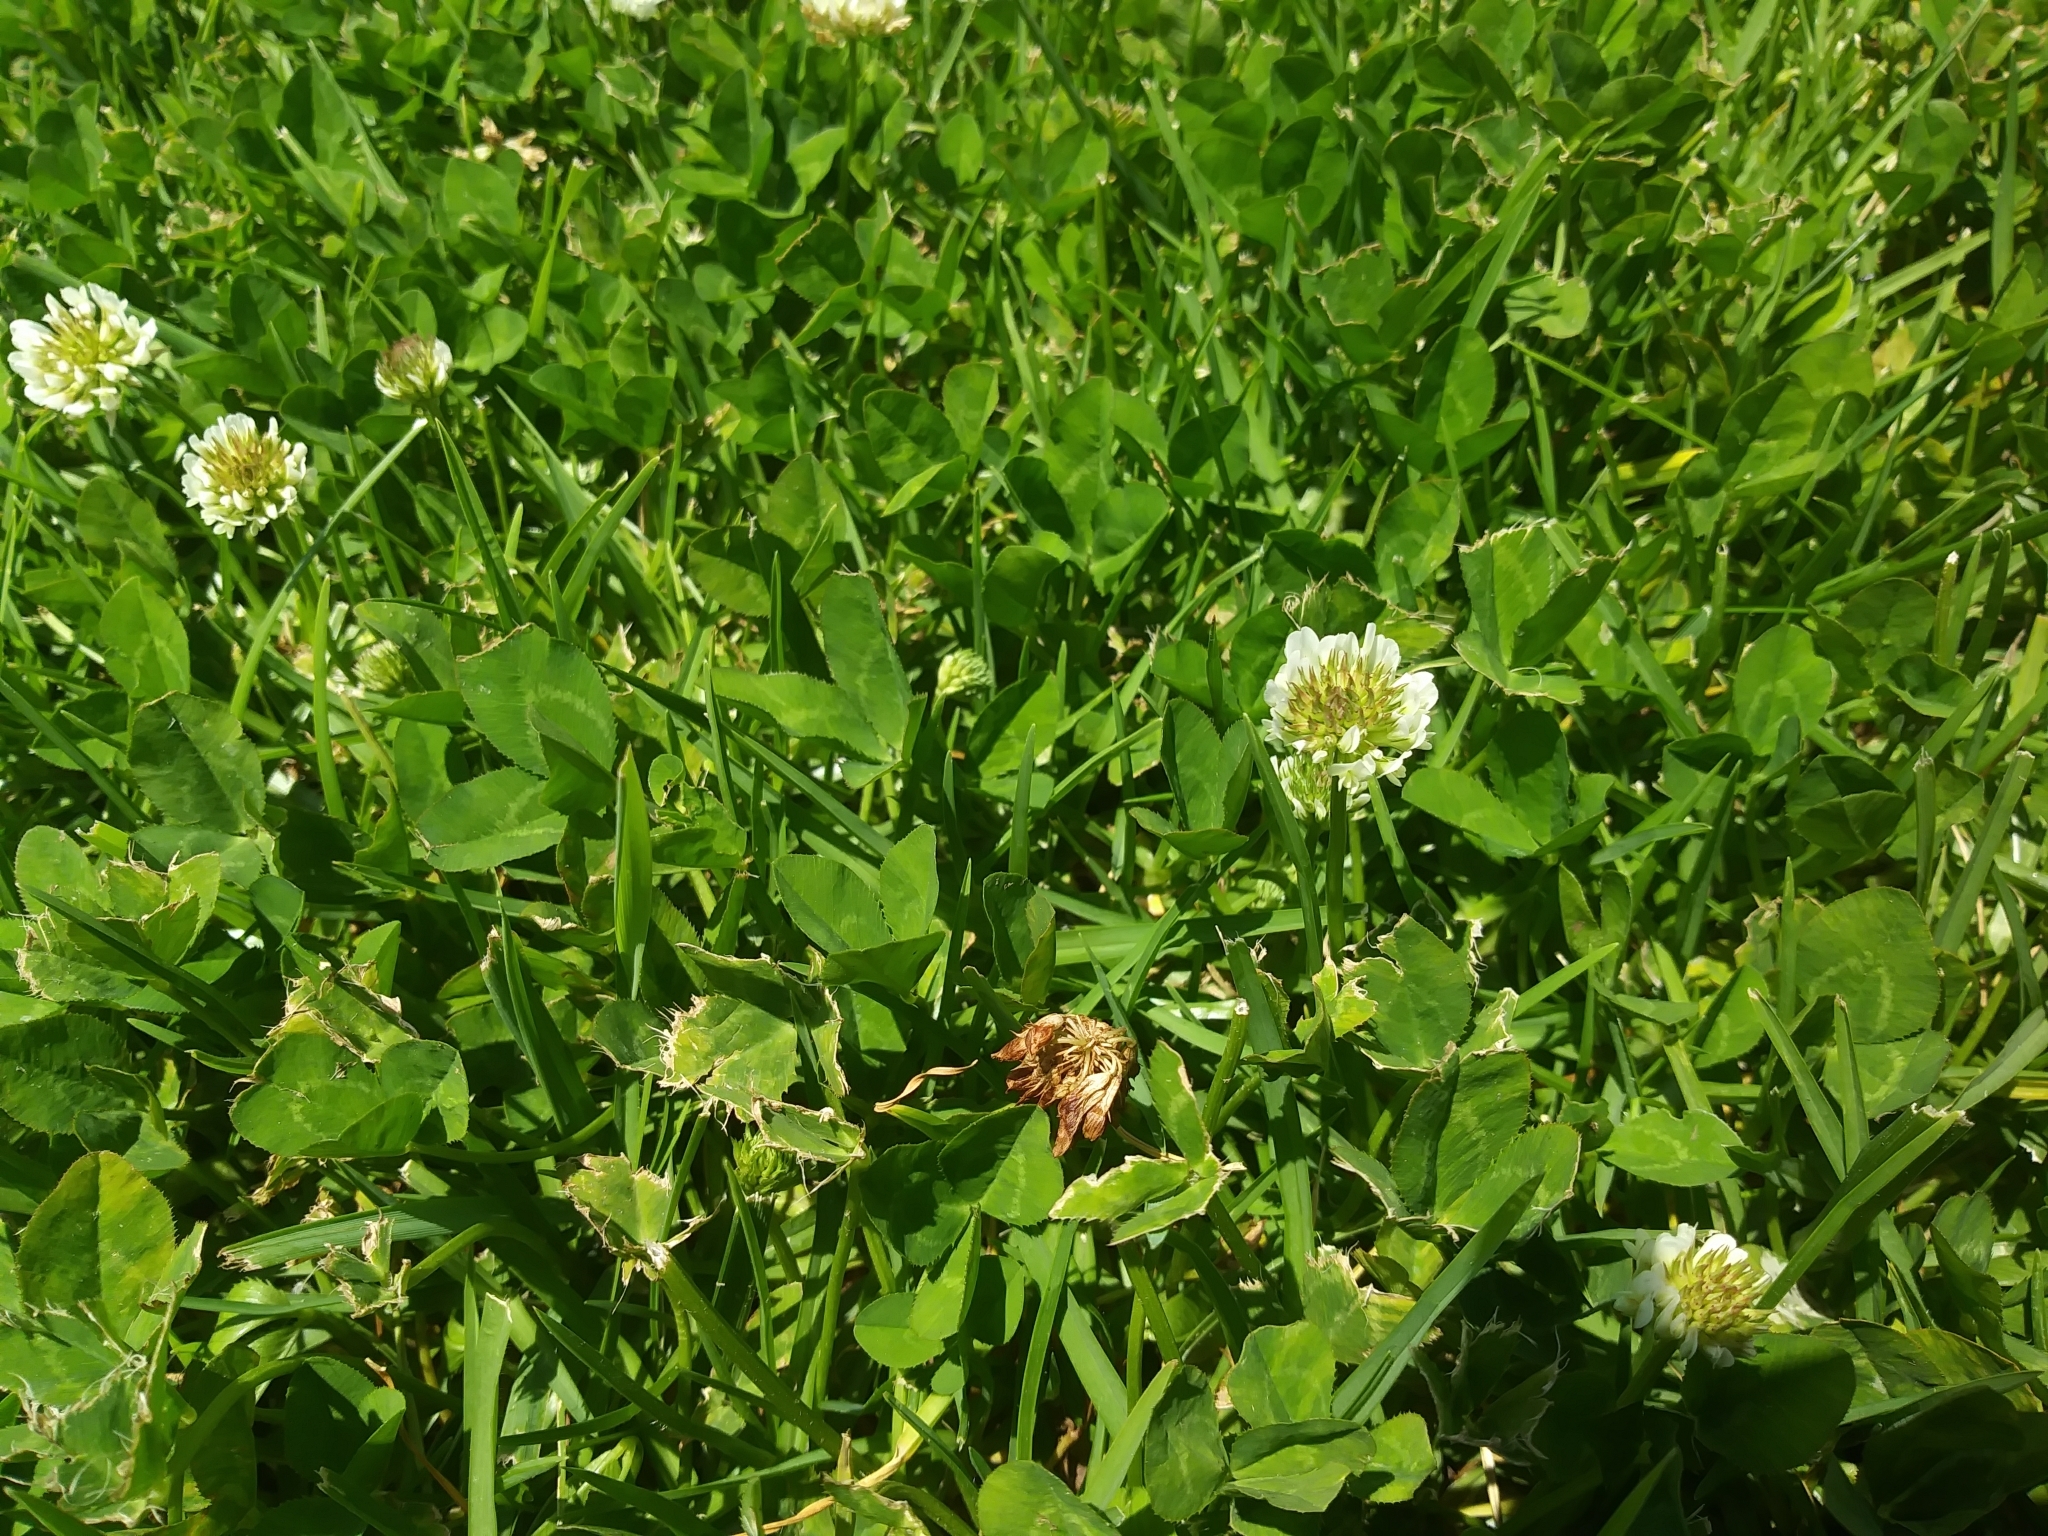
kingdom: Plantae
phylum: Tracheophyta
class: Magnoliopsida
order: Fabales
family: Fabaceae
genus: Trifolium
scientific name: Trifolium repens
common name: White clover
